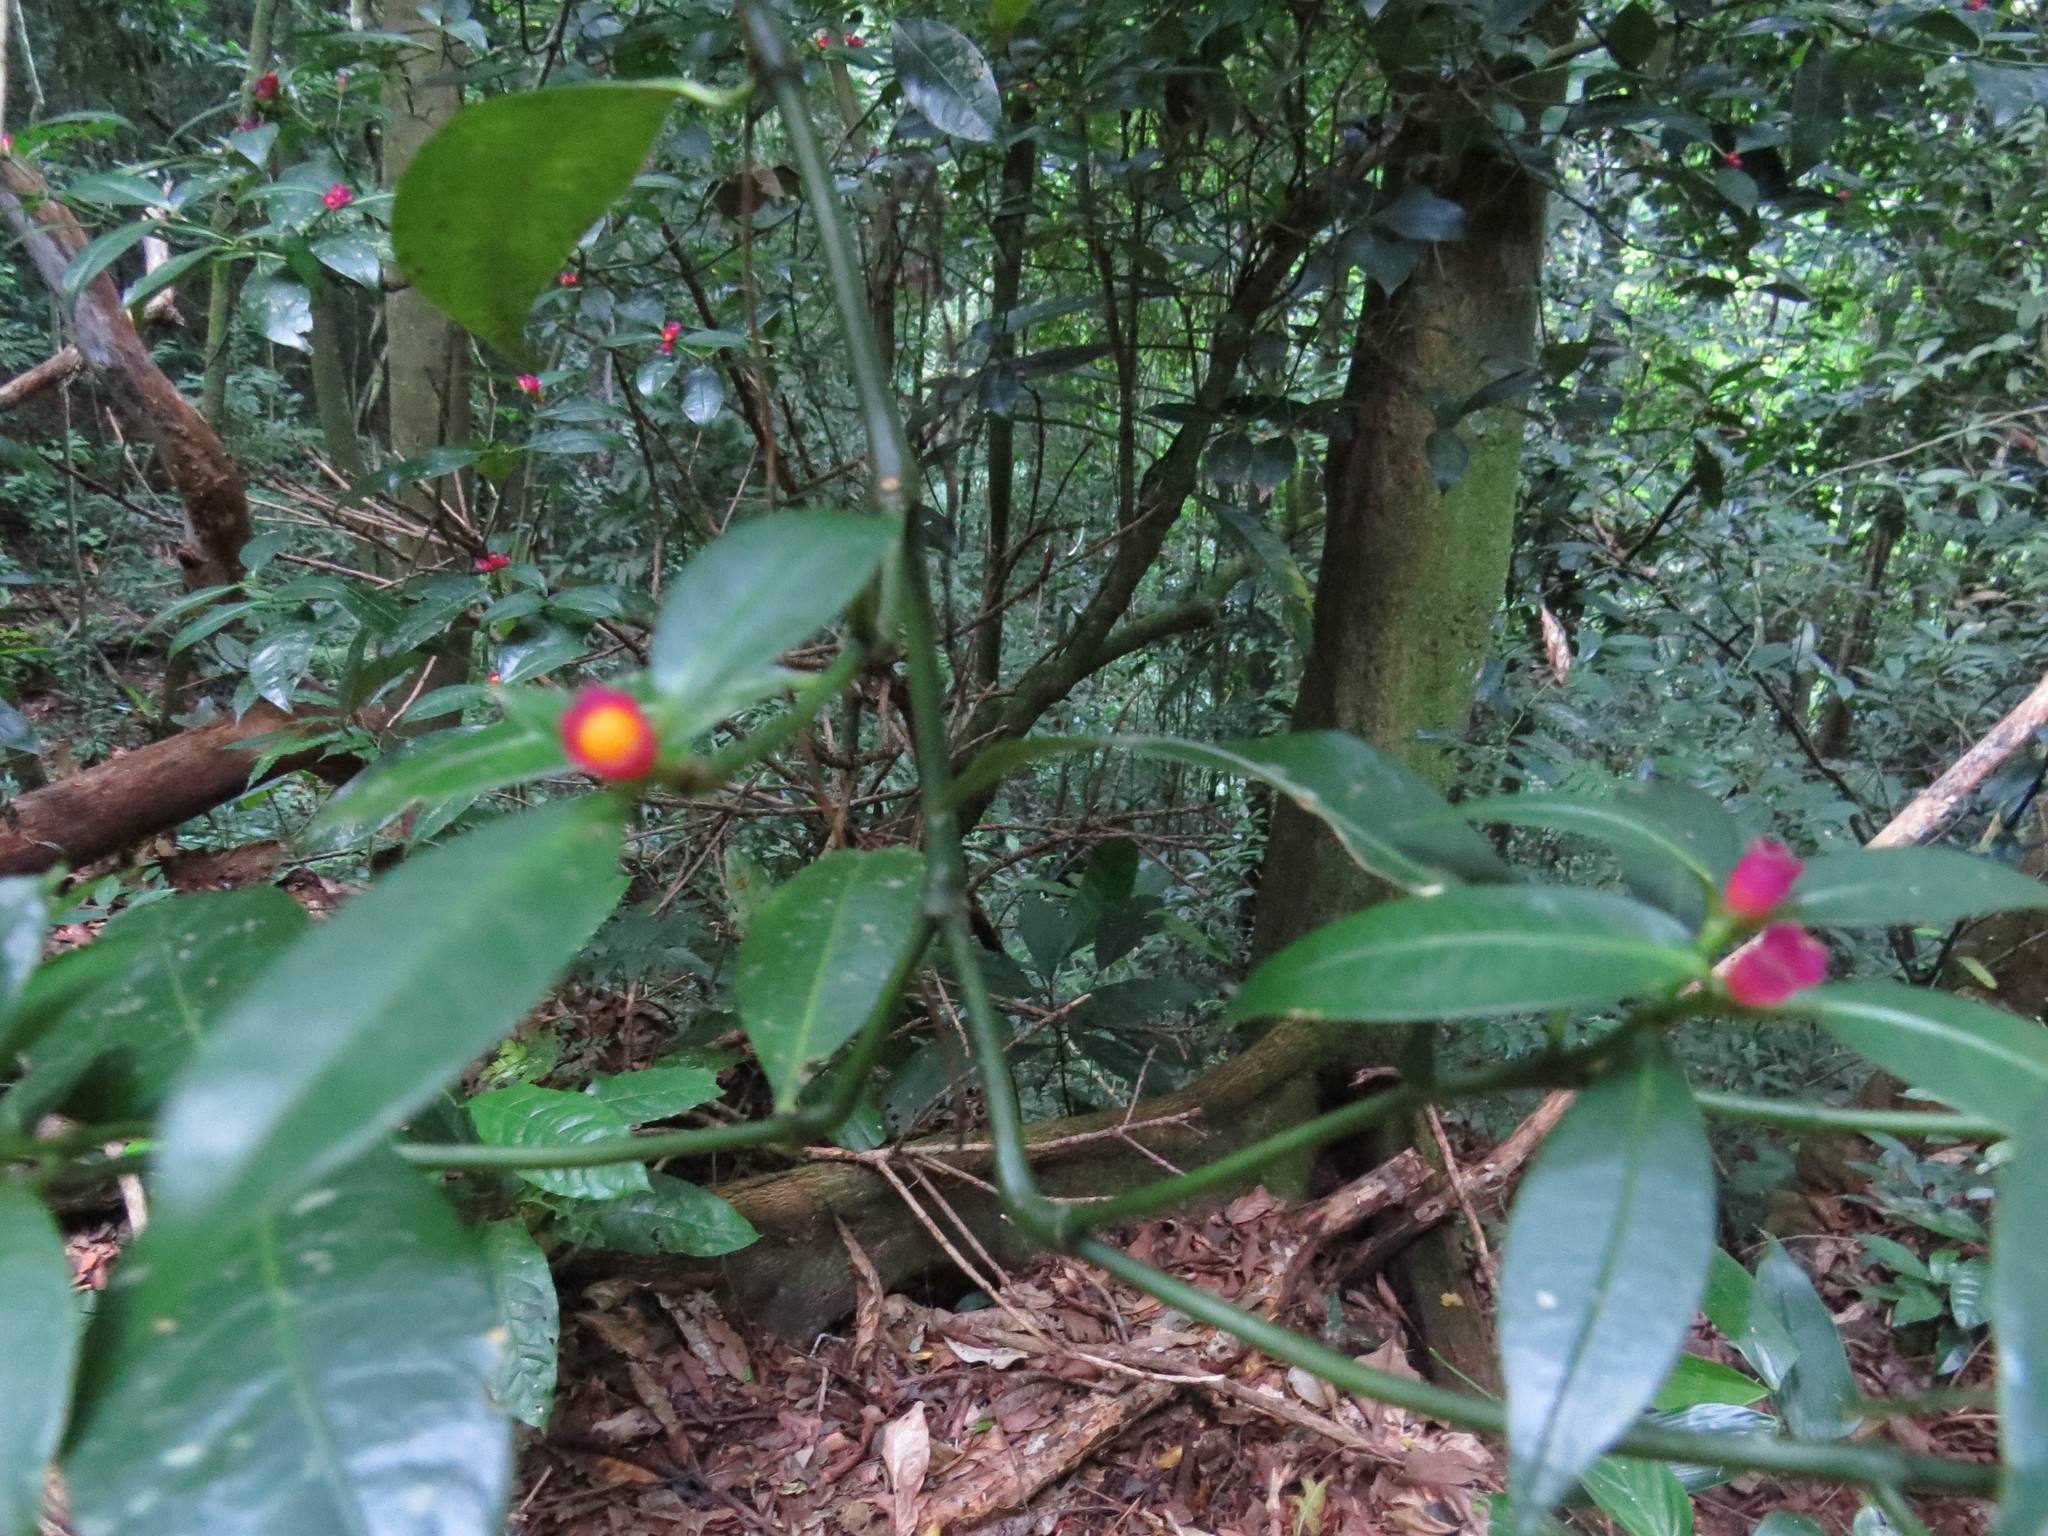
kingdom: Plantae
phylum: Tracheophyta
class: Magnoliopsida
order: Gentianales
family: Rubiaceae
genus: Psychotria
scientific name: Psychotria nuda
